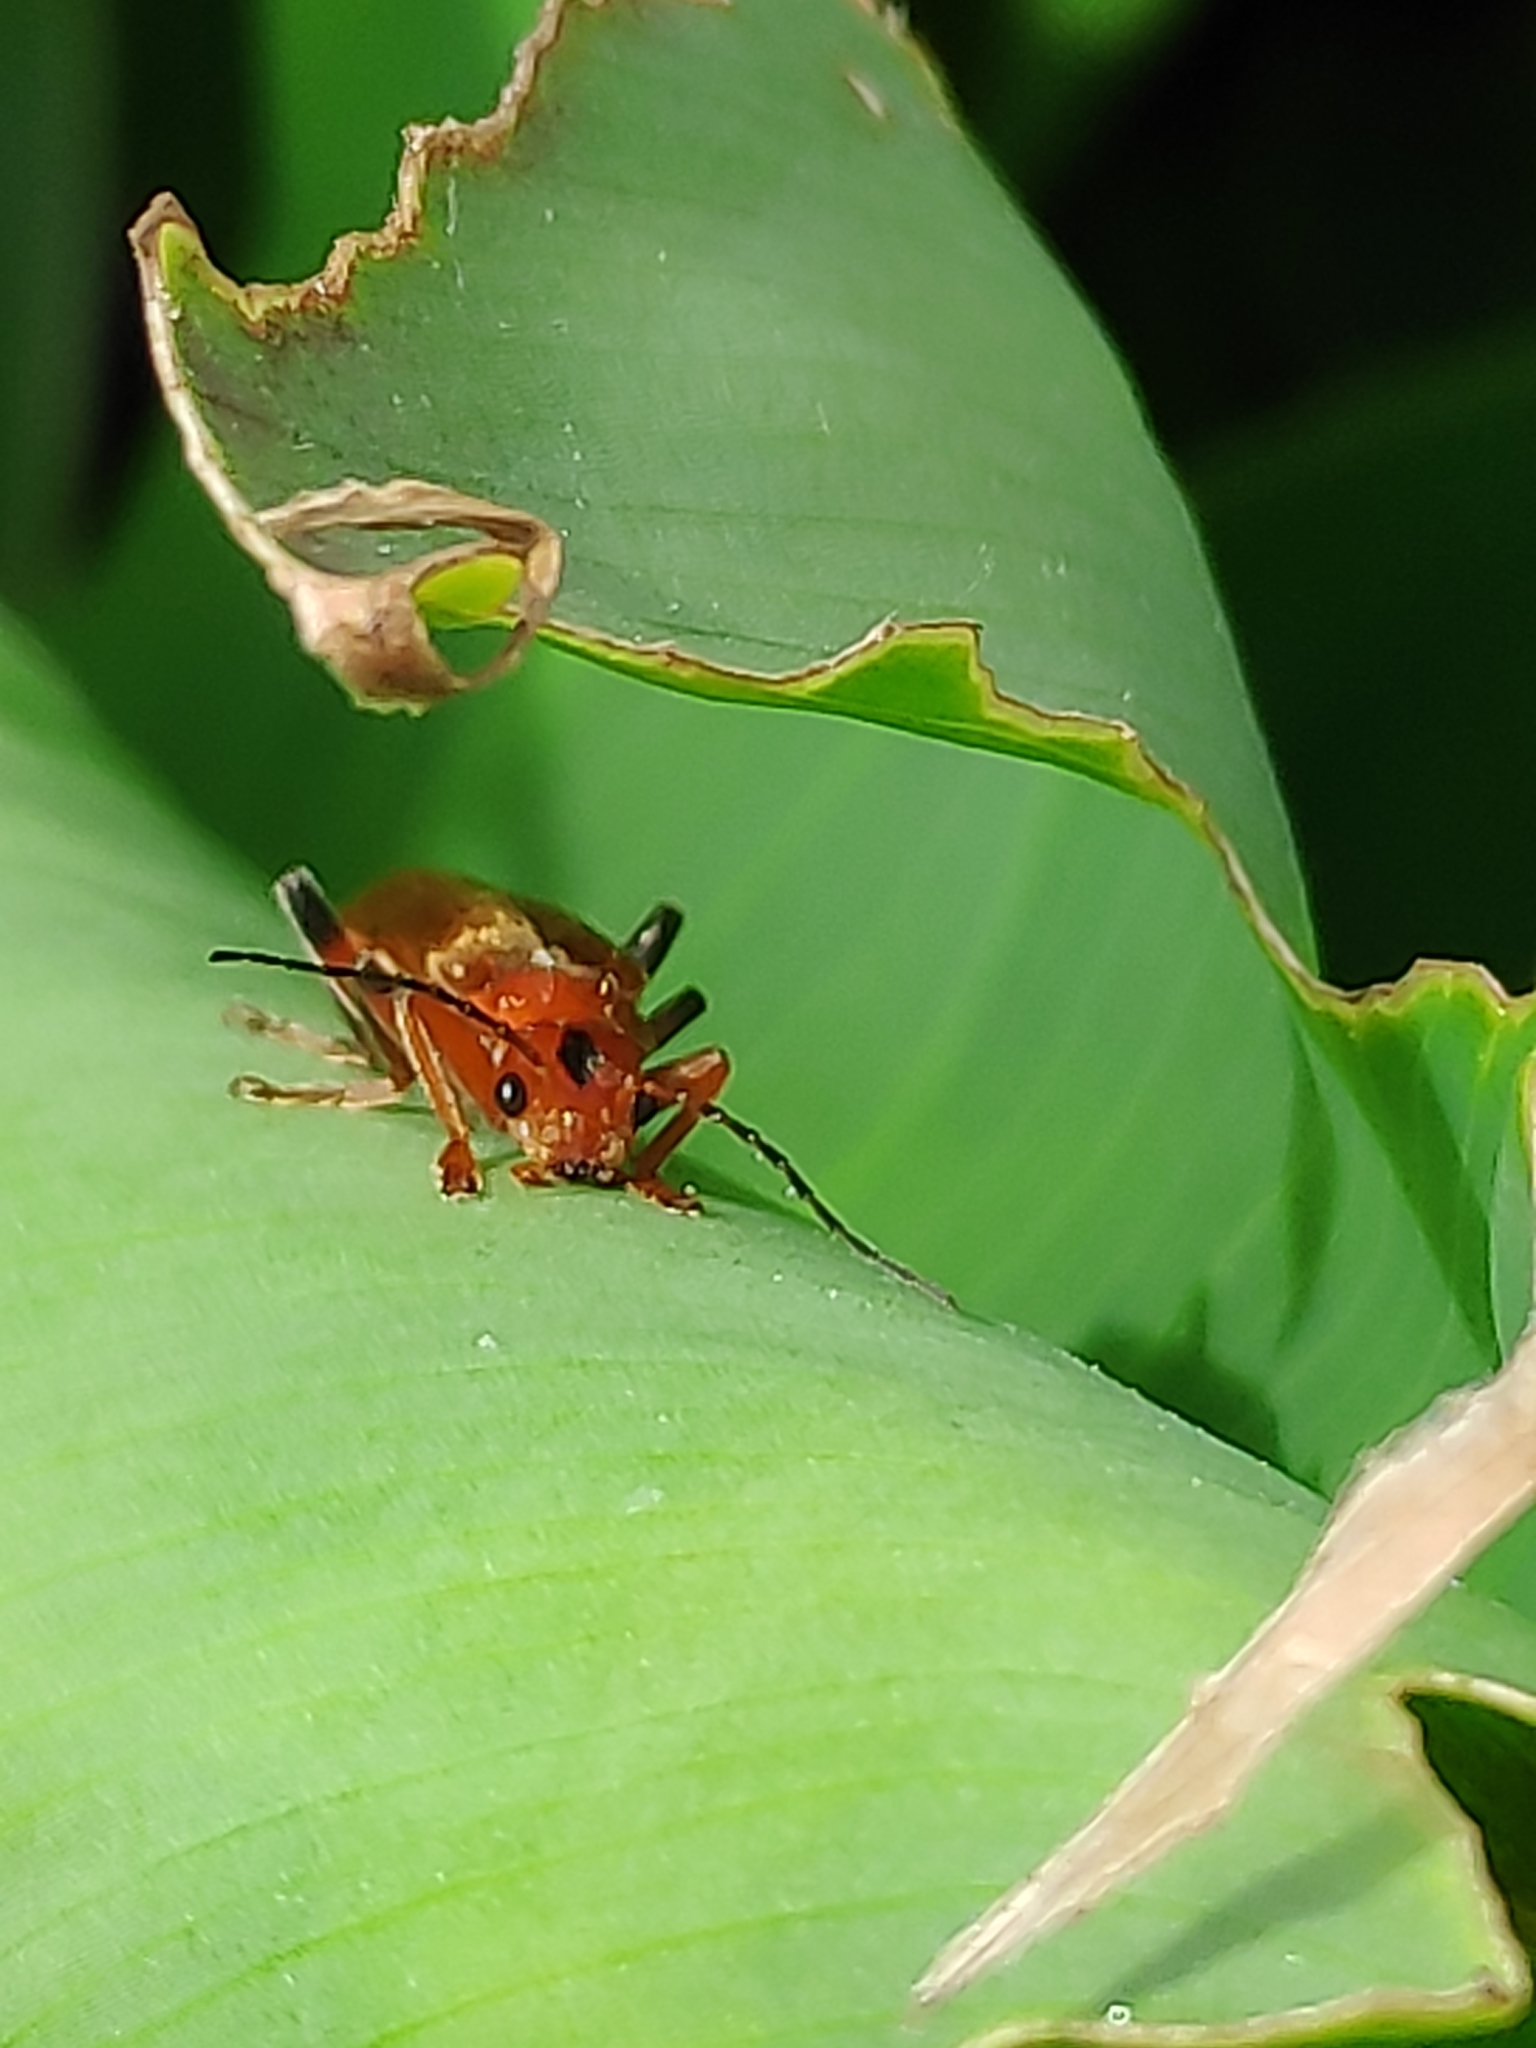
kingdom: Animalia
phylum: Arthropoda
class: Insecta
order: Coleoptera
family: Cantharidae
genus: Cantharis
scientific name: Cantharis livida
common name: Livid soldier beetle
